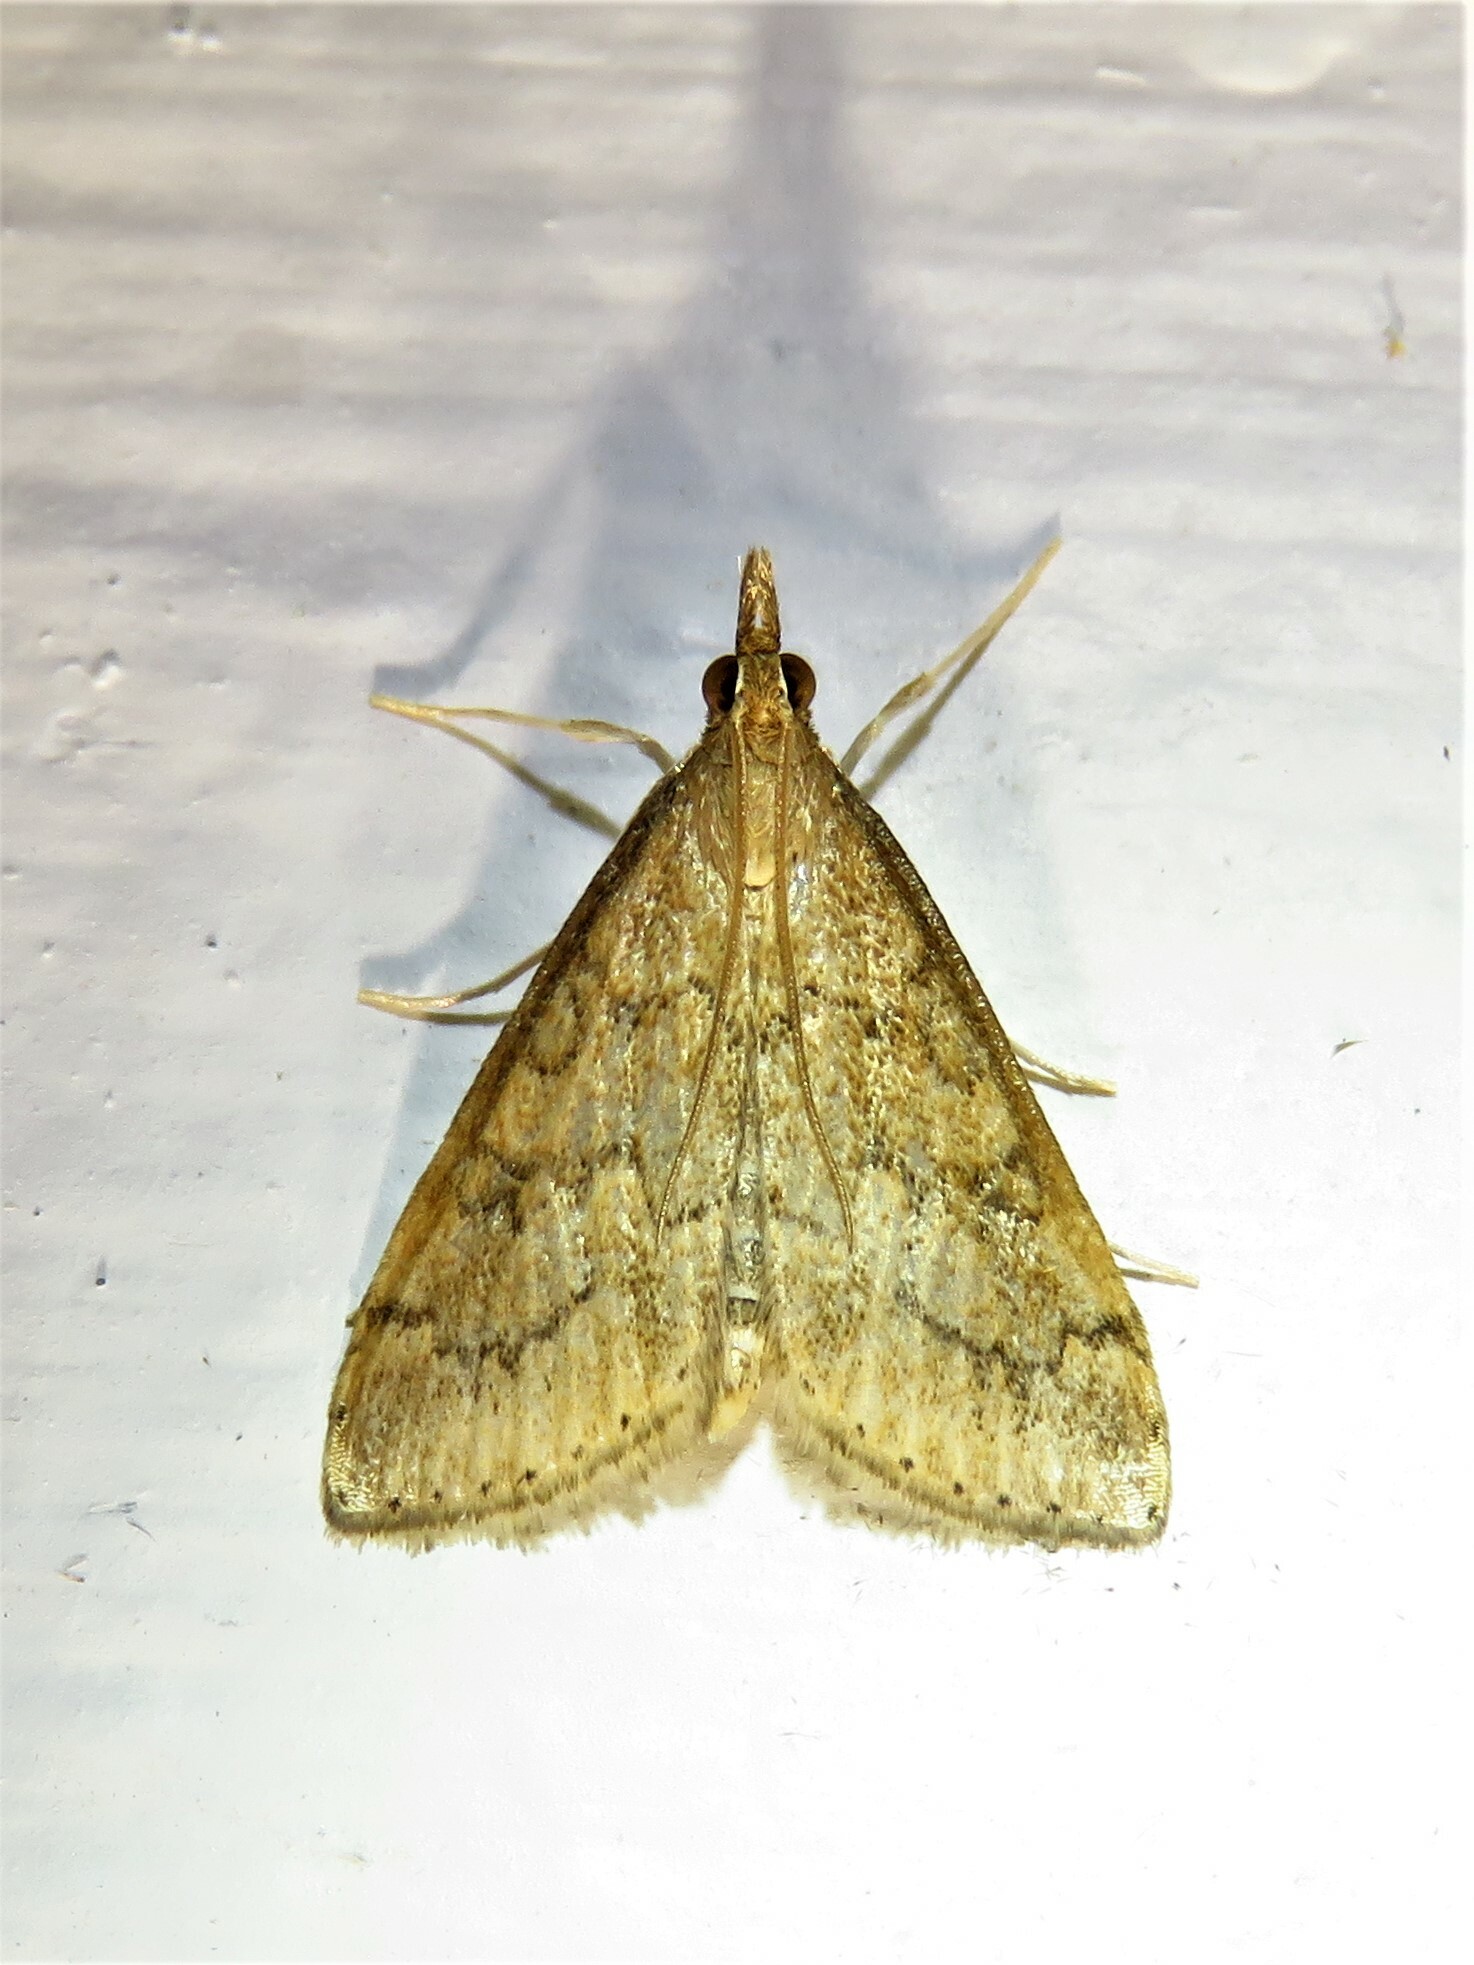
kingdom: Animalia
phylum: Arthropoda
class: Insecta
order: Lepidoptera
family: Crambidae
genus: Udea
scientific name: Udea rubigalis
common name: Celery leaftier moth
